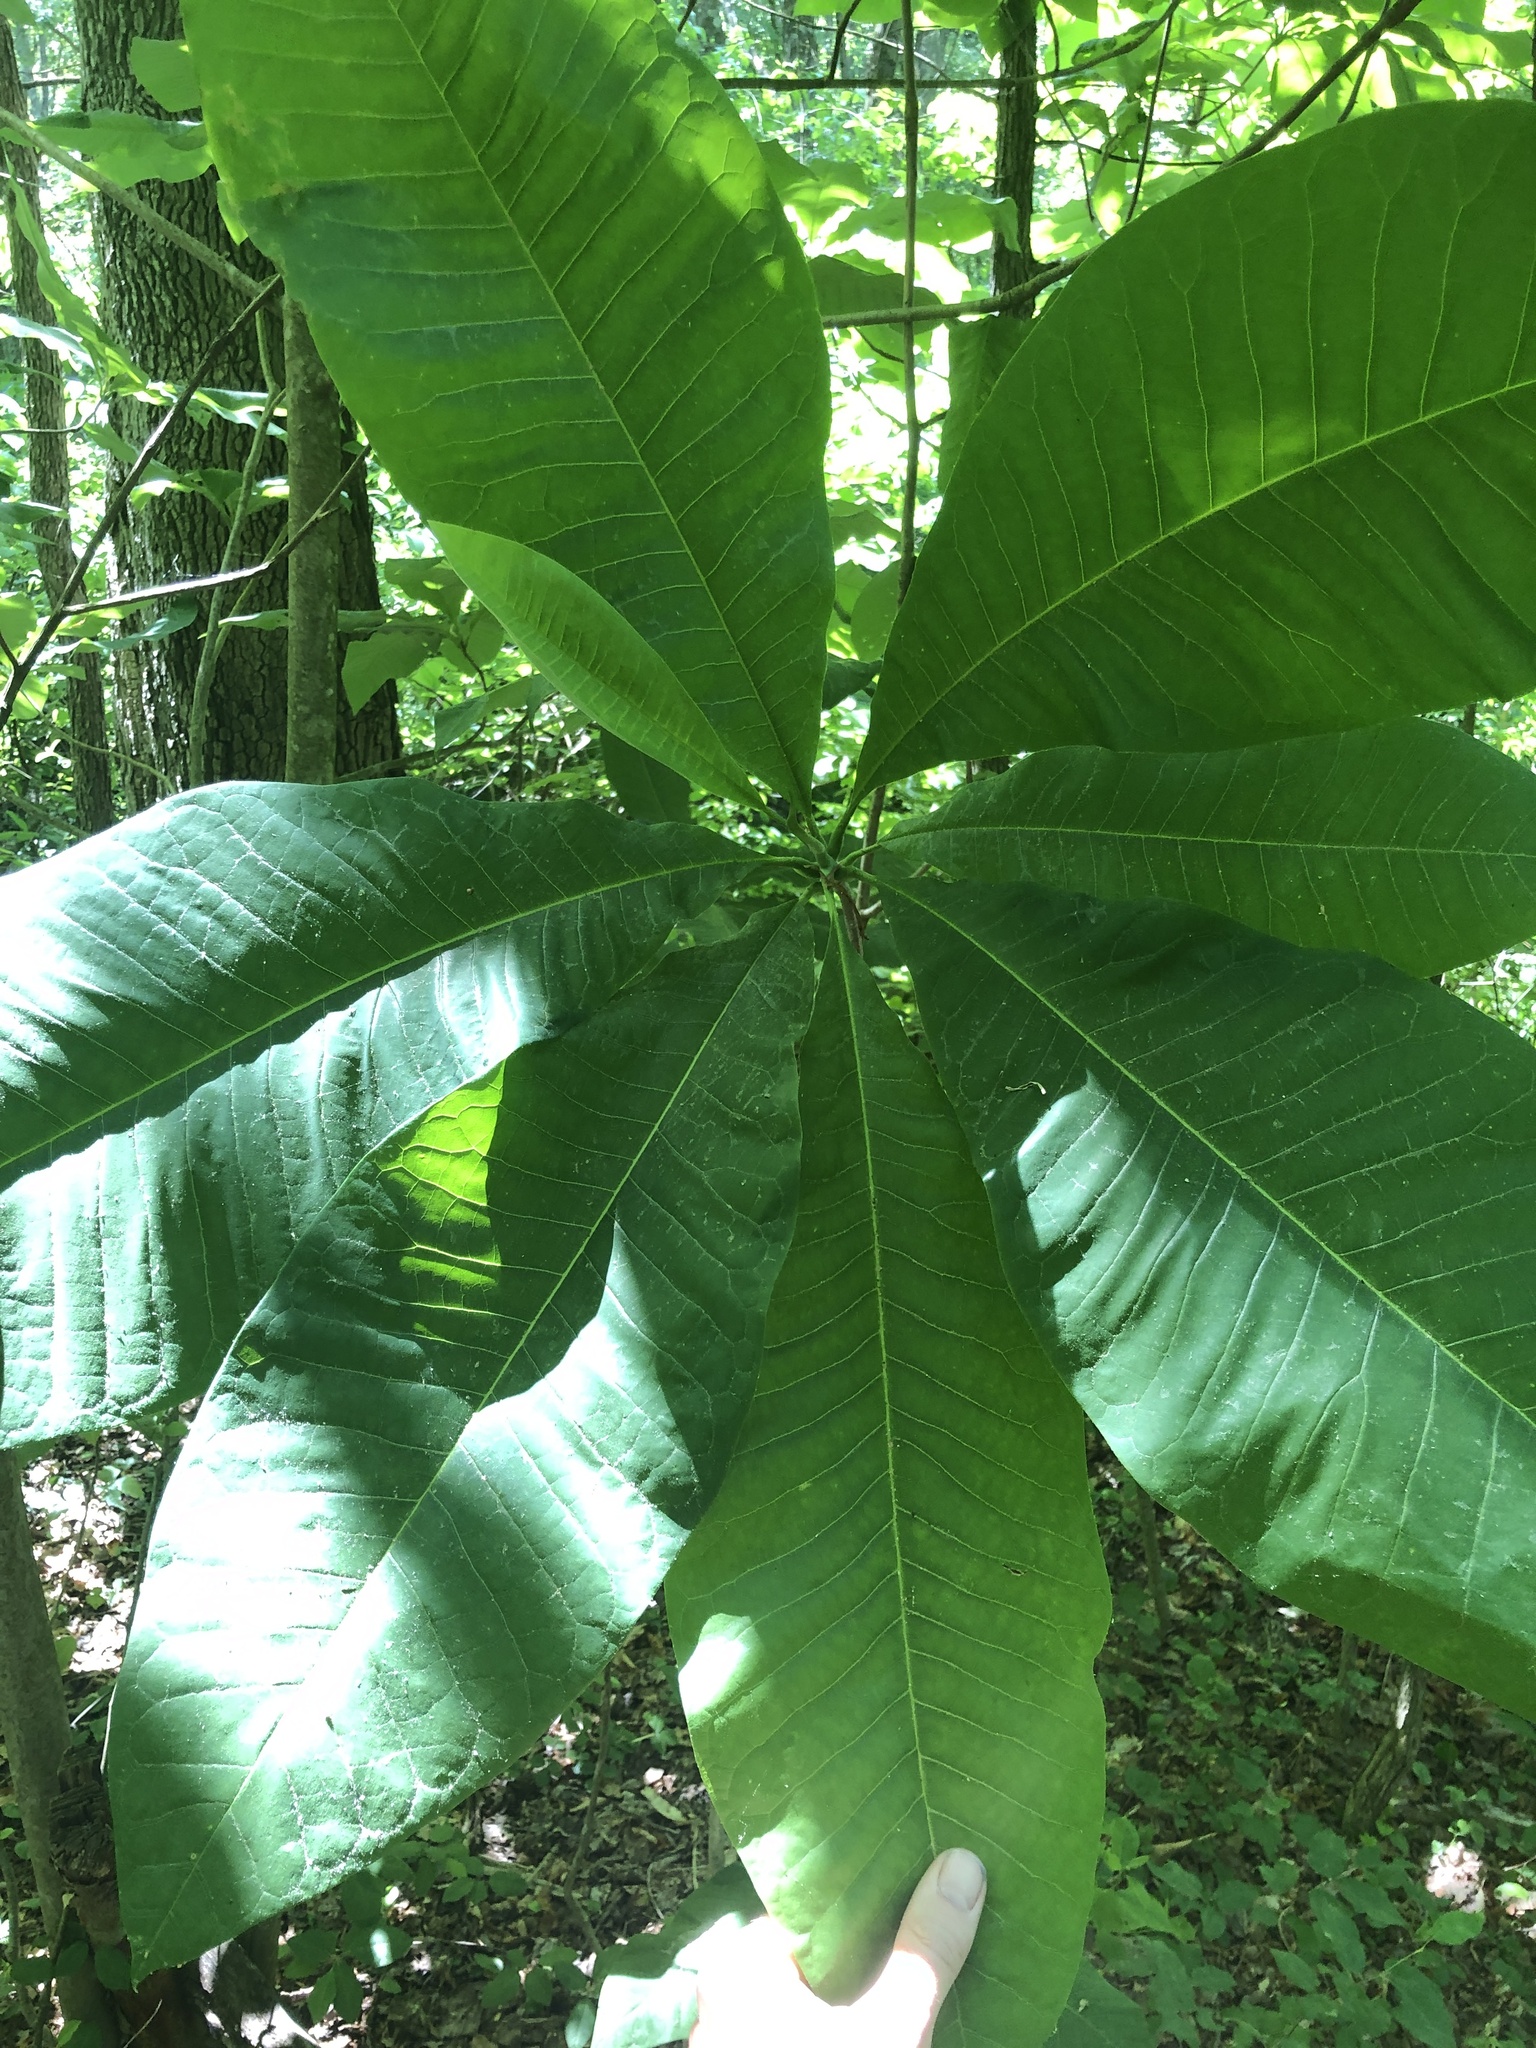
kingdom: Plantae
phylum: Tracheophyta
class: Magnoliopsida
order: Magnoliales
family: Magnoliaceae
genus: Magnolia
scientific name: Magnolia tripetala
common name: Umbrella magnolia
